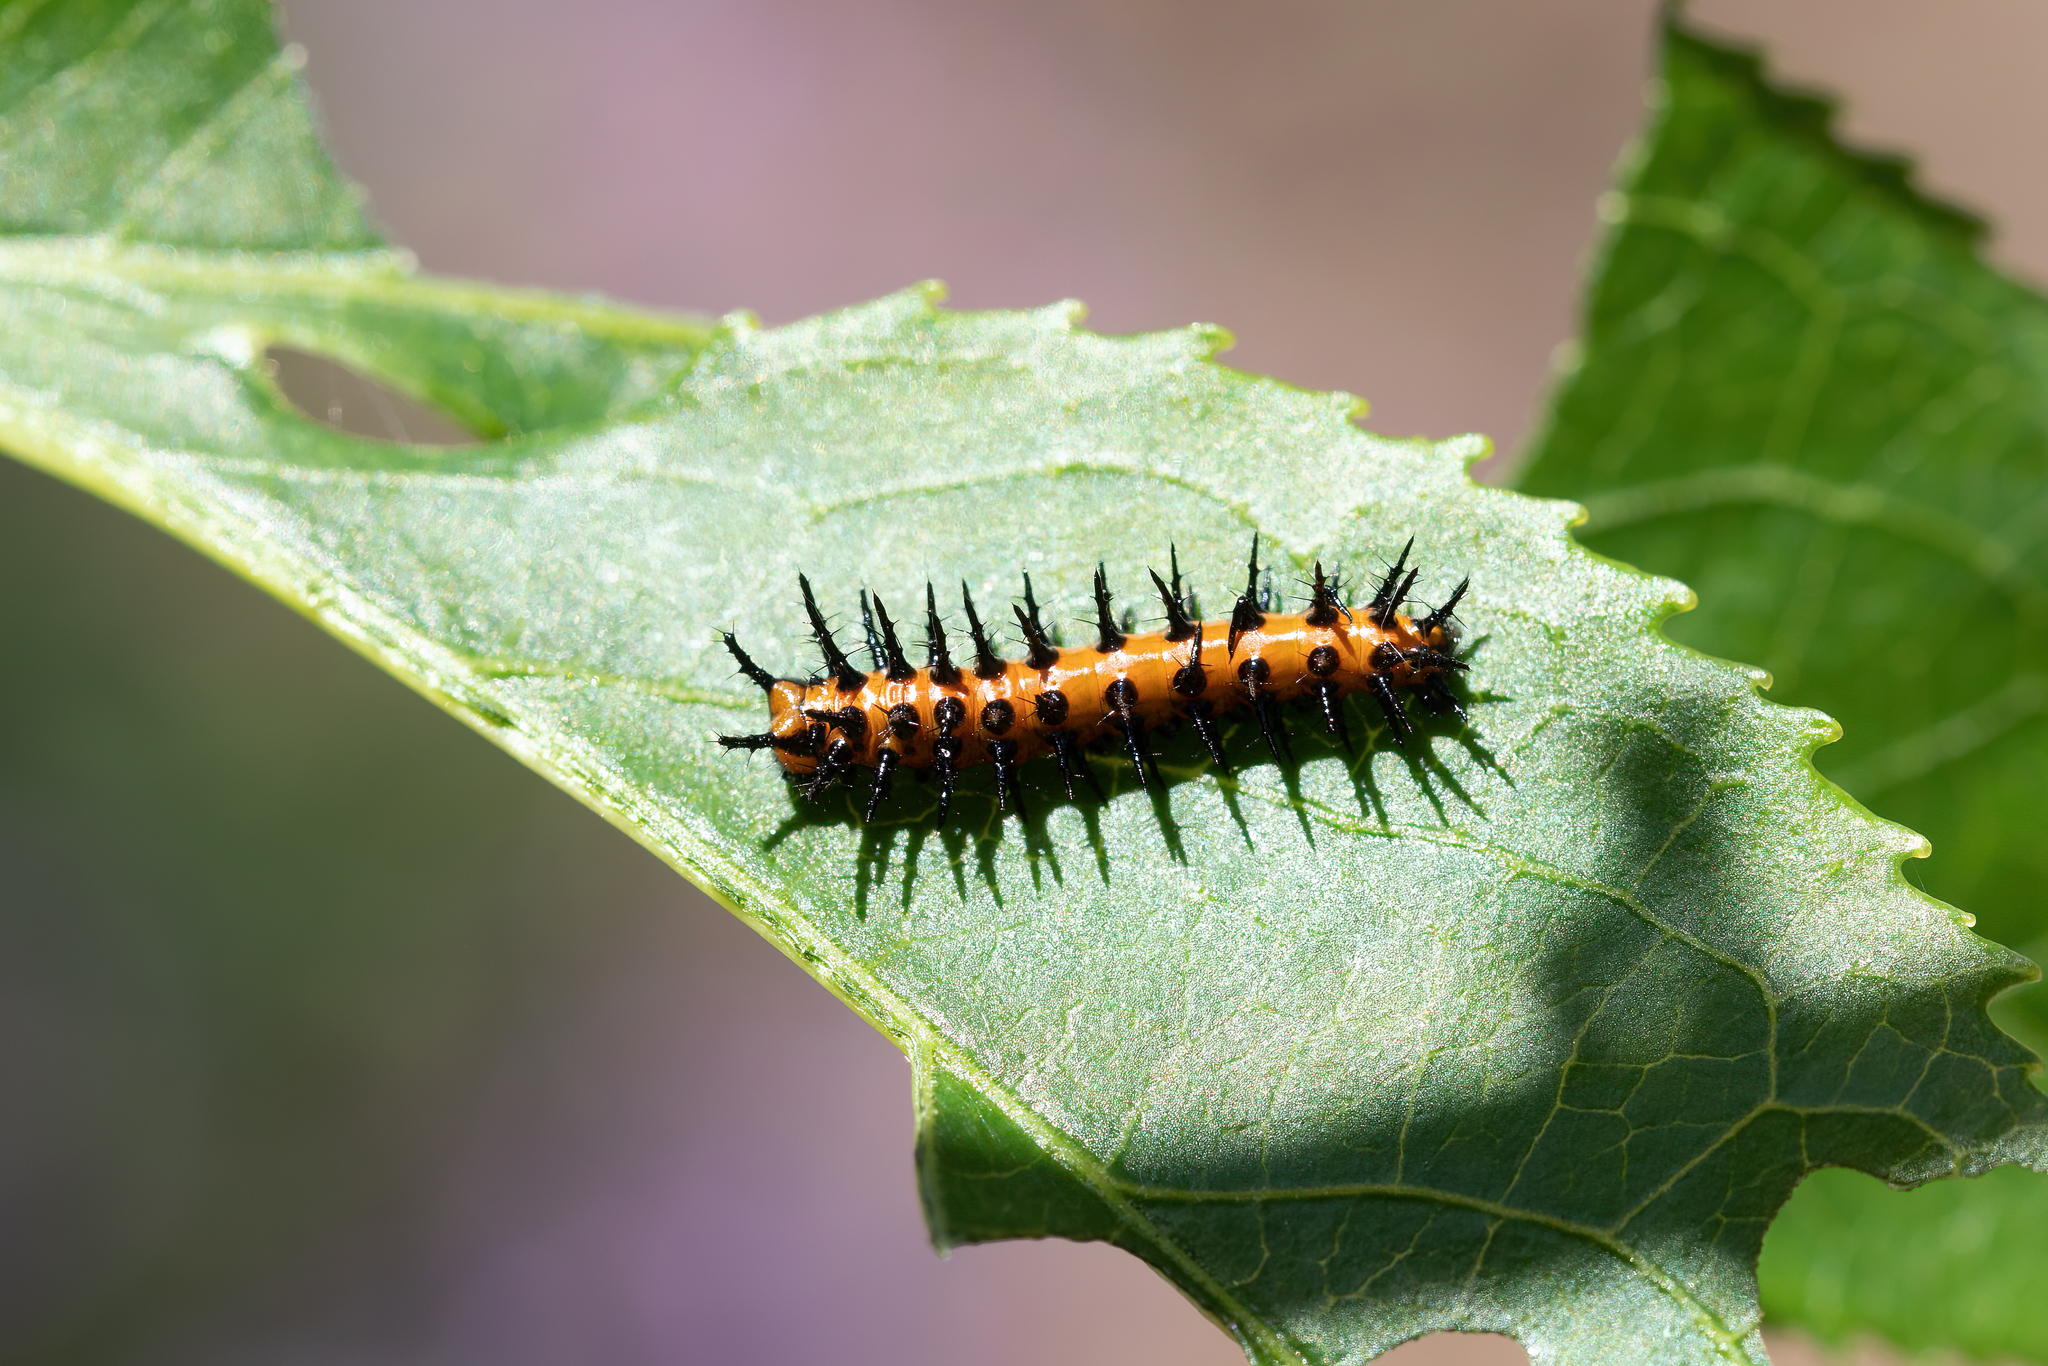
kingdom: Animalia
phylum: Arthropoda
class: Insecta
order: Lepidoptera
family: Nymphalidae
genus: Dione
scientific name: Dione vanillae
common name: Gulf fritillary
